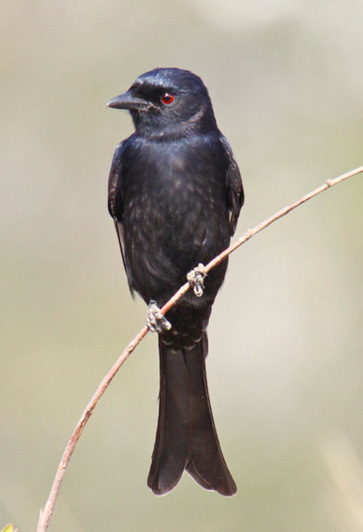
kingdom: Animalia
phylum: Chordata
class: Aves
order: Passeriformes
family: Dicruridae
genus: Dicrurus
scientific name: Dicrurus adsimilis
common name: Fork-tailed drongo
